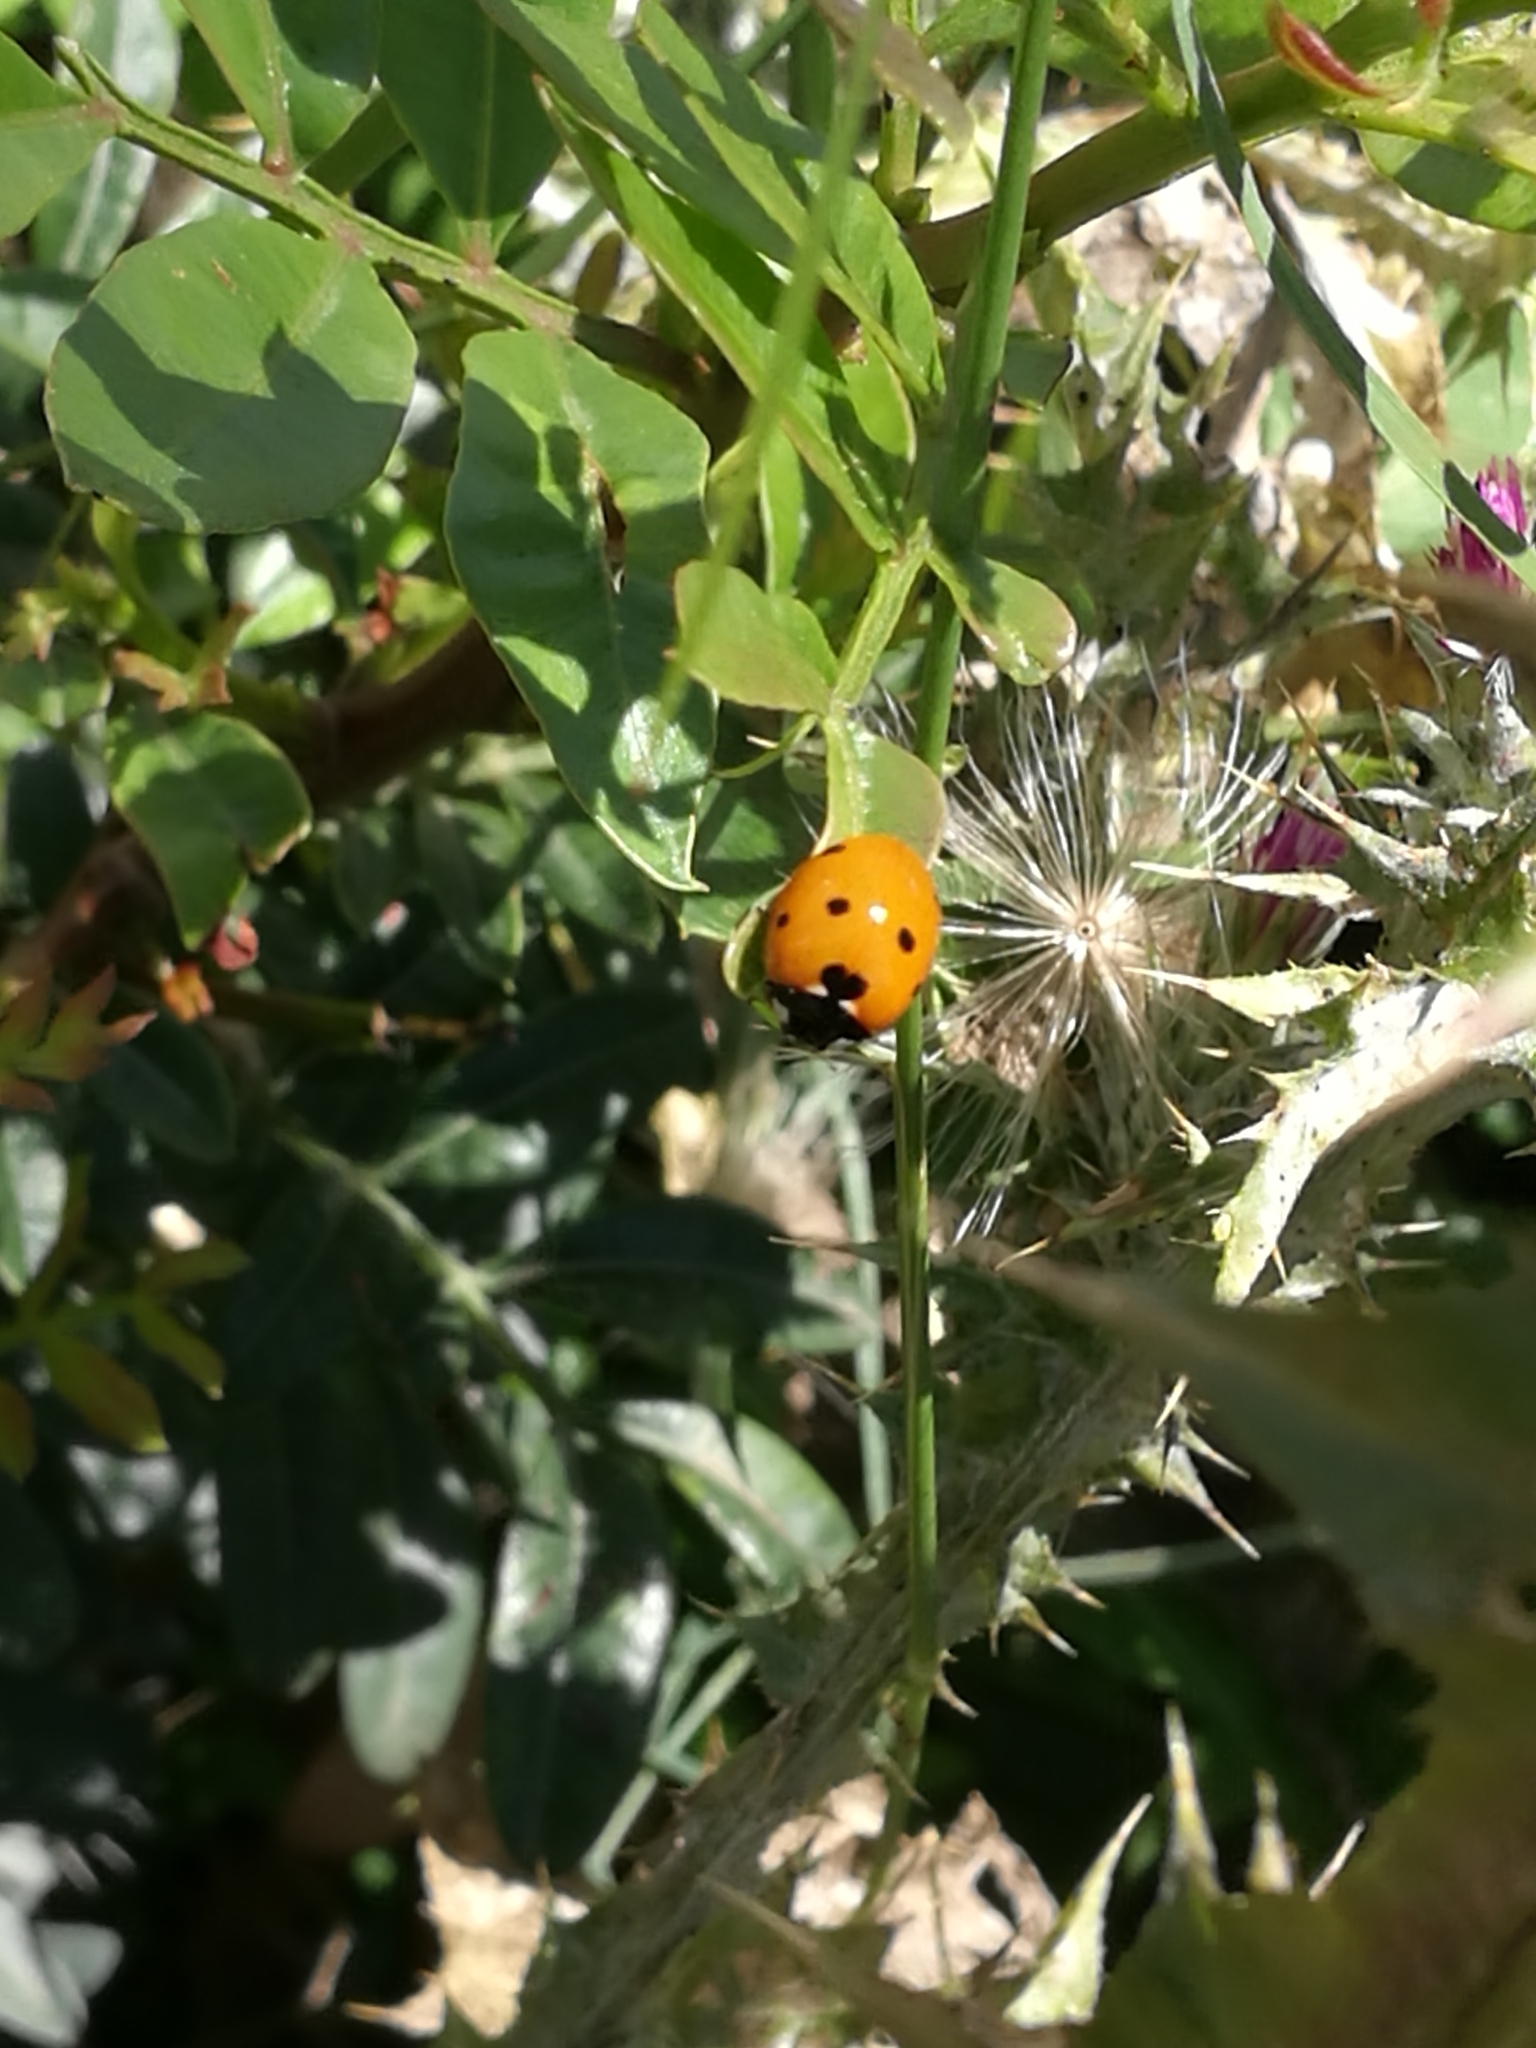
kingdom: Animalia
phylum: Arthropoda
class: Insecta
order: Coleoptera
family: Coccinellidae
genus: Coccinella
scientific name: Coccinella septempunctata
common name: Sevenspotted lady beetle
